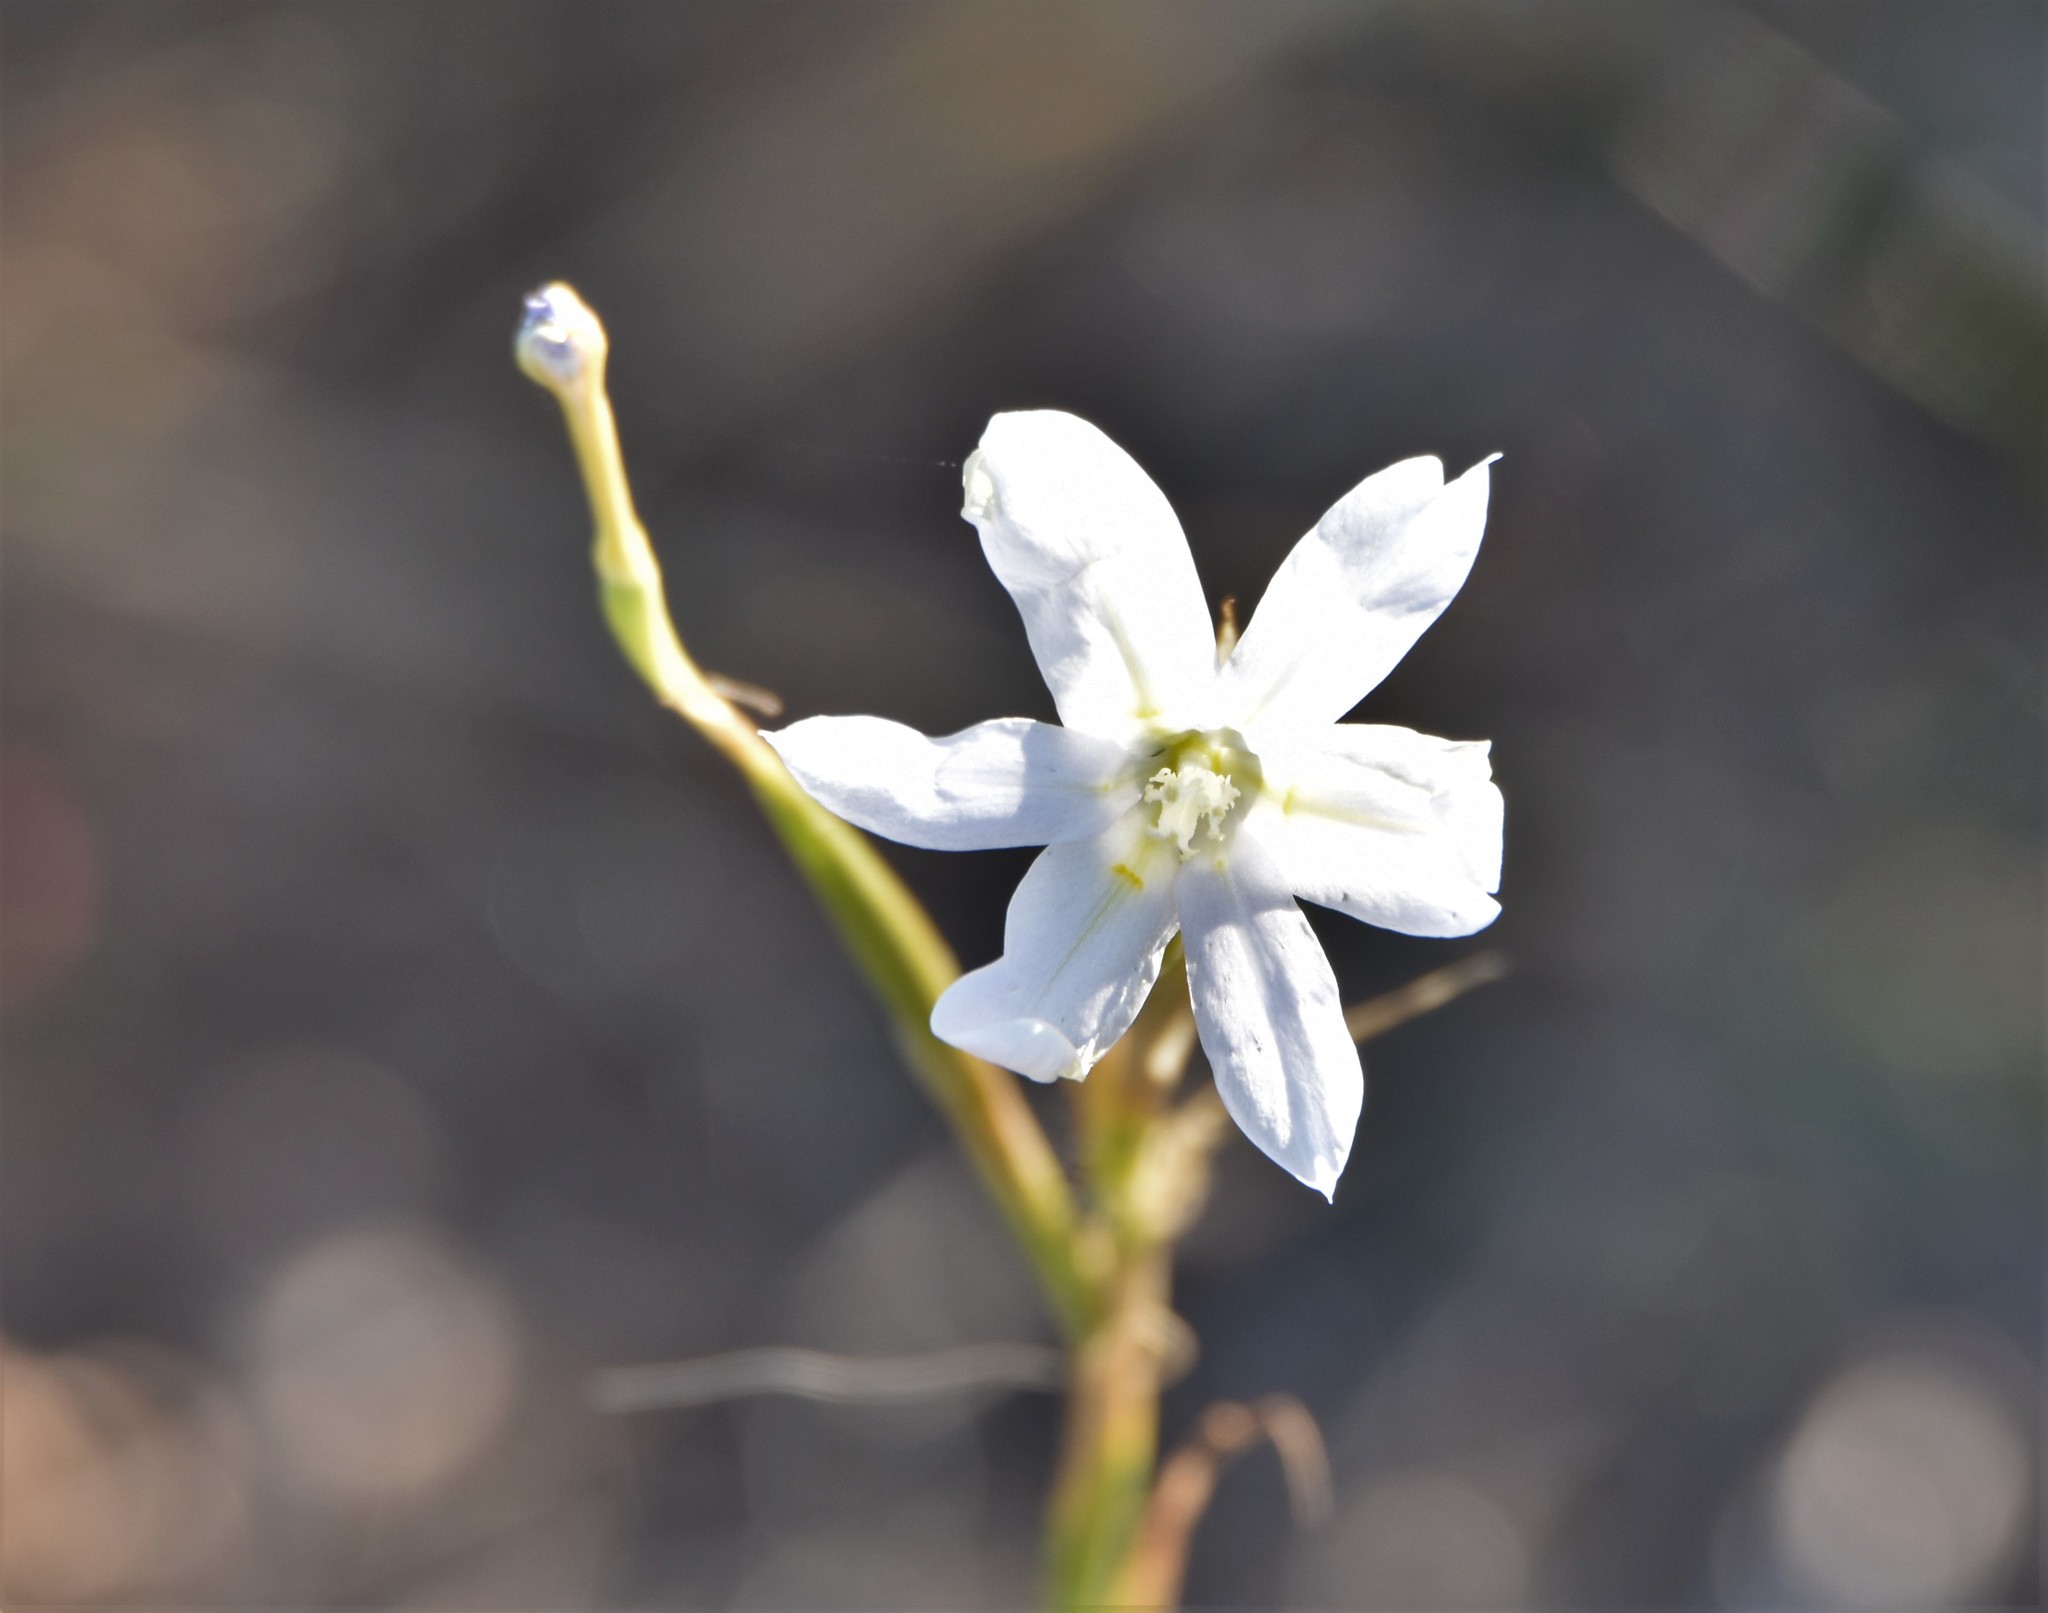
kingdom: Plantae
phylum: Tracheophyta
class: Liliopsida
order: Asparagales
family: Iridaceae
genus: Moraea
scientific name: Moraea polyanthos
